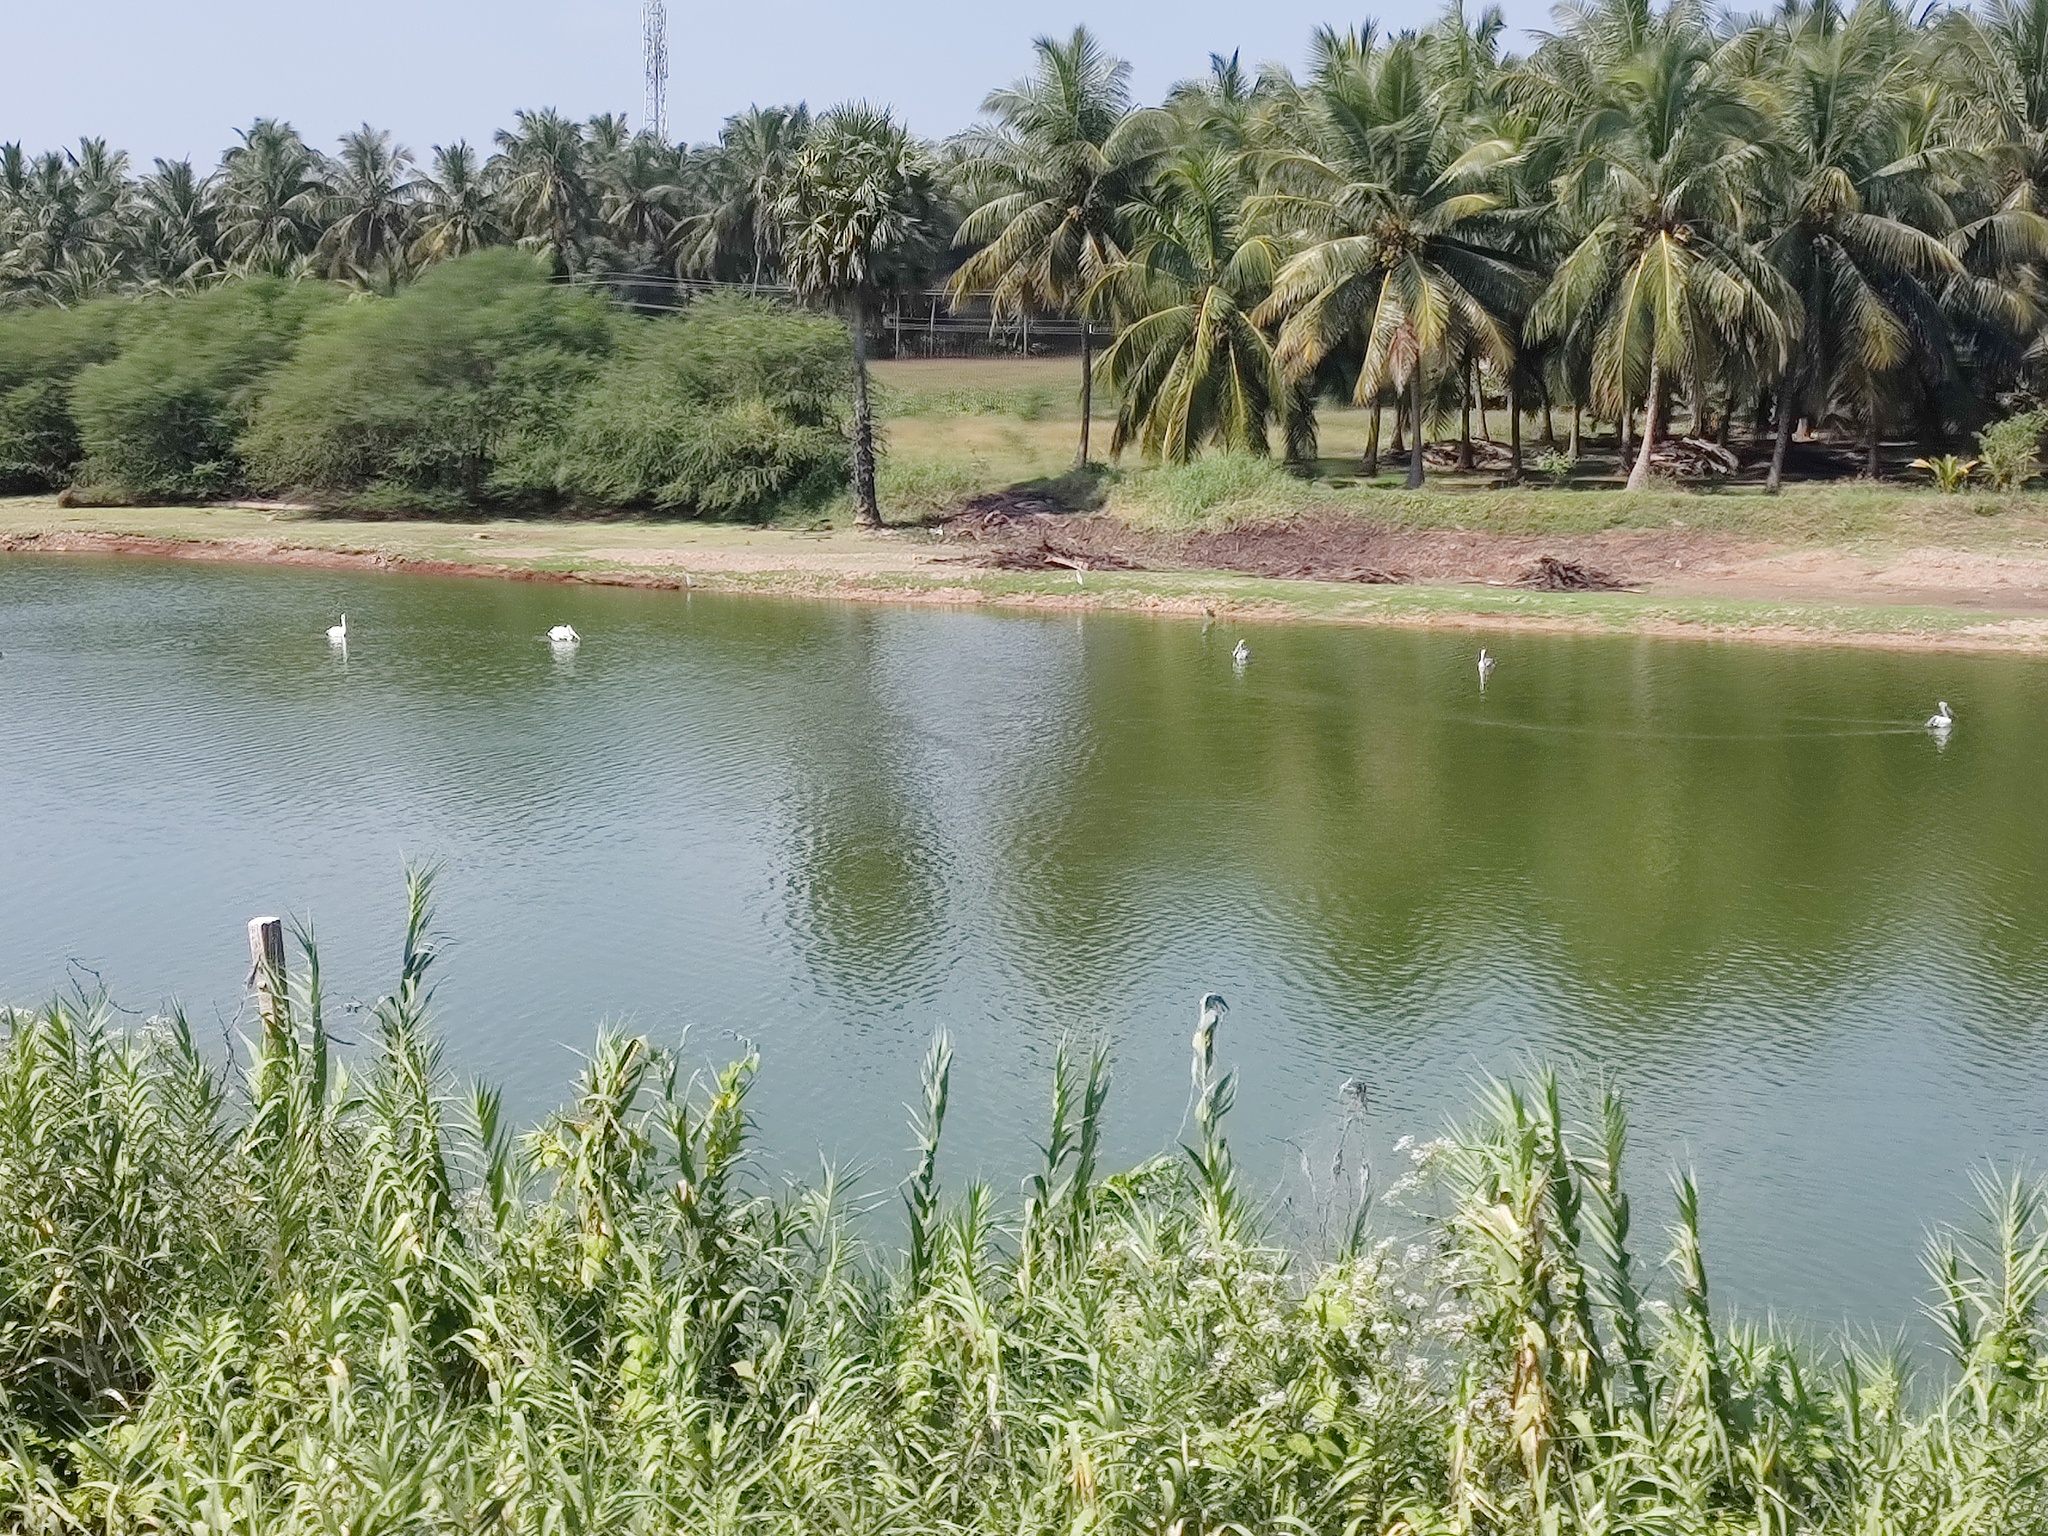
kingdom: Animalia
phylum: Chordata
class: Aves
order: Pelecaniformes
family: Pelecanidae
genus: Pelecanus
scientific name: Pelecanus philippensis
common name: Spot-billed pelican
